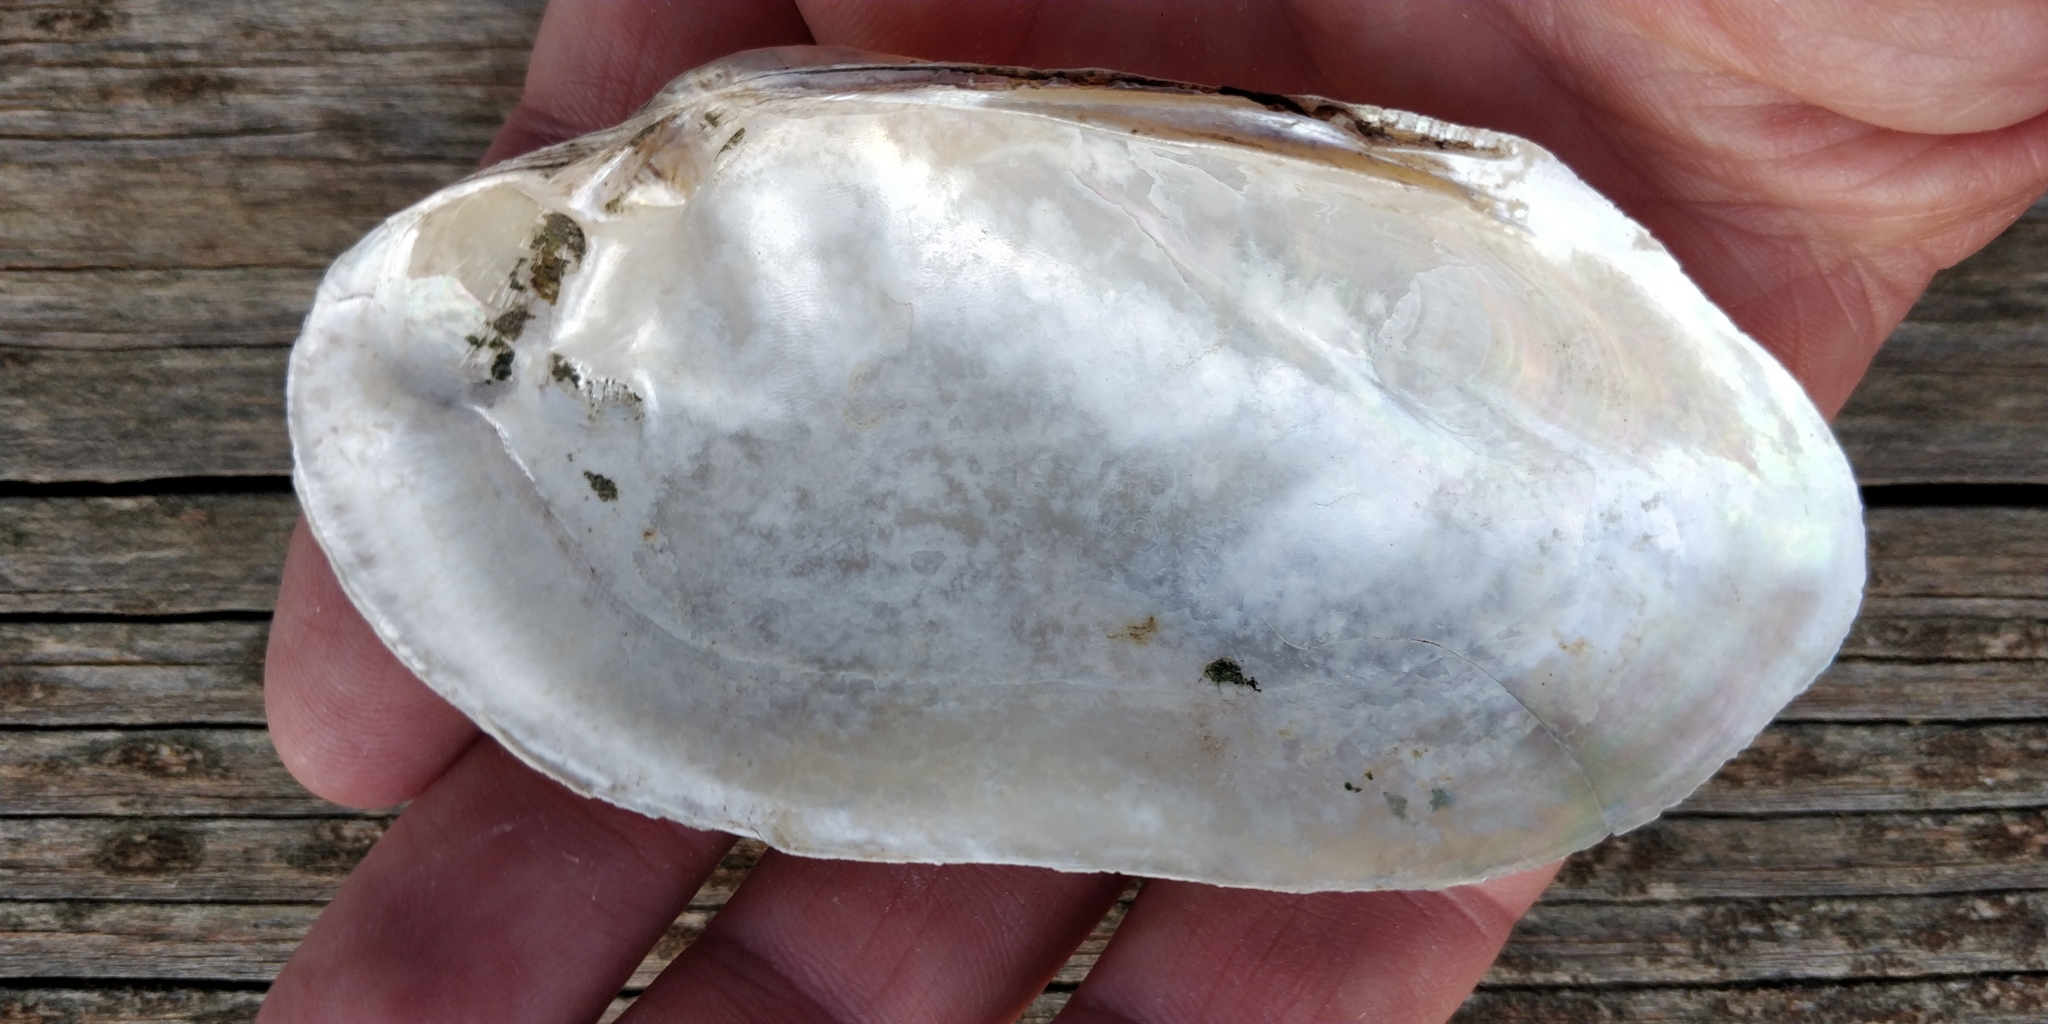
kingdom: Animalia
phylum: Mollusca
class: Bivalvia
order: Unionida
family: Unionidae
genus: Lampsilis
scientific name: Lampsilis siliquoidea
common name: Fatmucket
